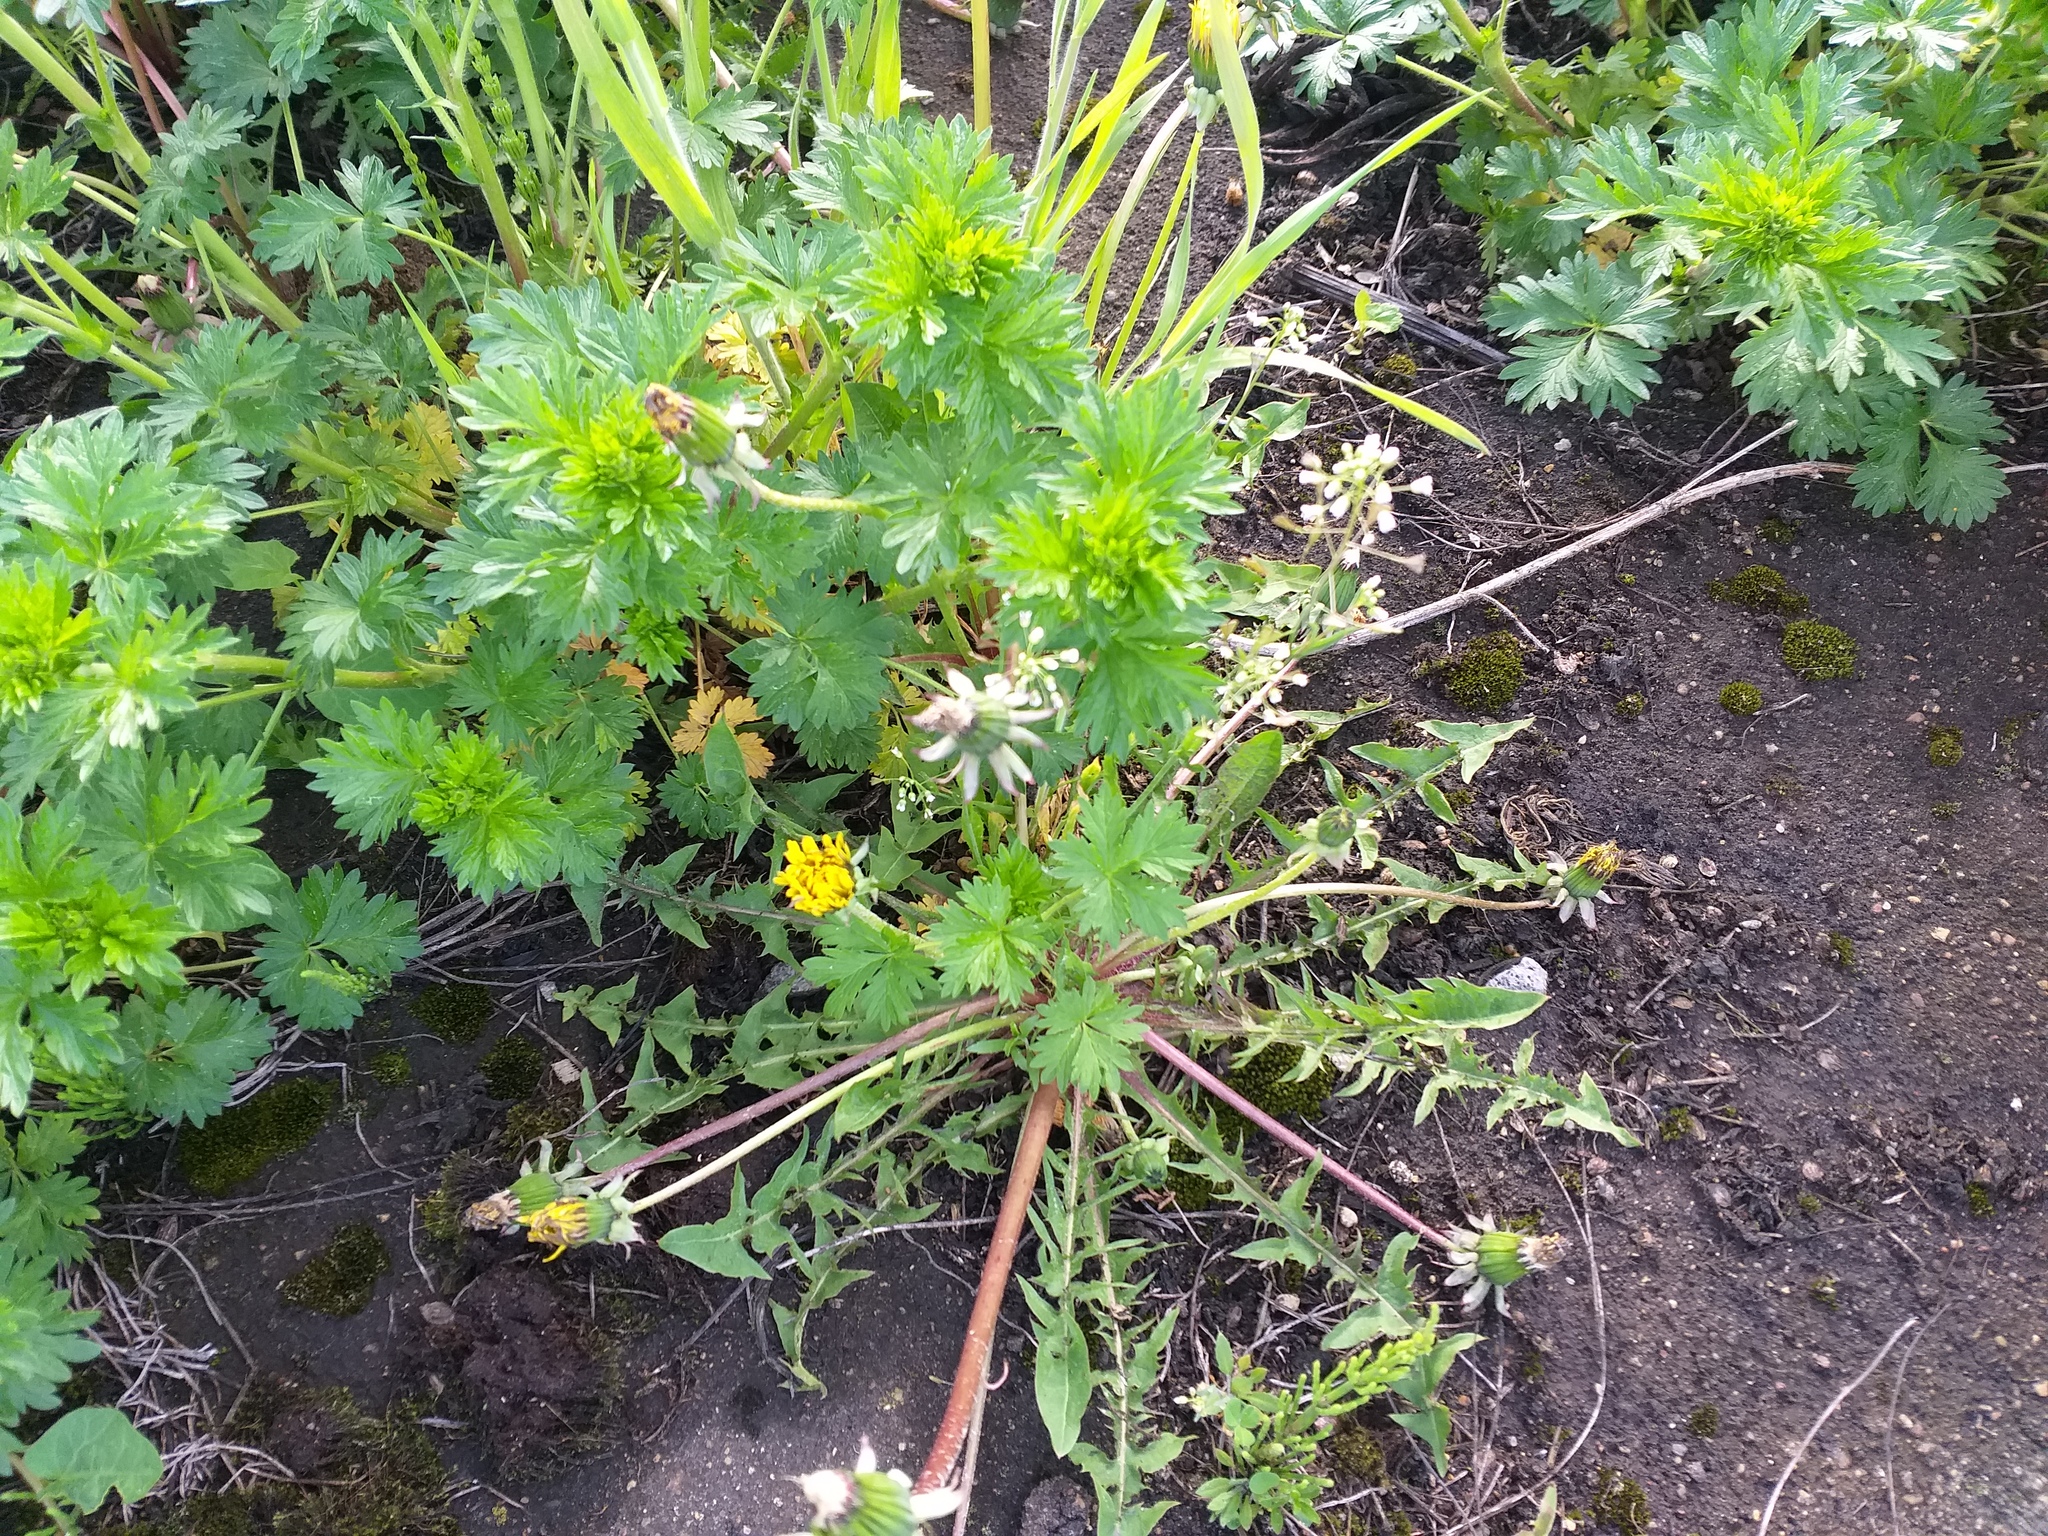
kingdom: Plantae
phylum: Tracheophyta
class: Magnoliopsida
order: Asterales
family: Asteraceae
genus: Taraxacum
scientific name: Taraxacum officinale
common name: Common dandelion
